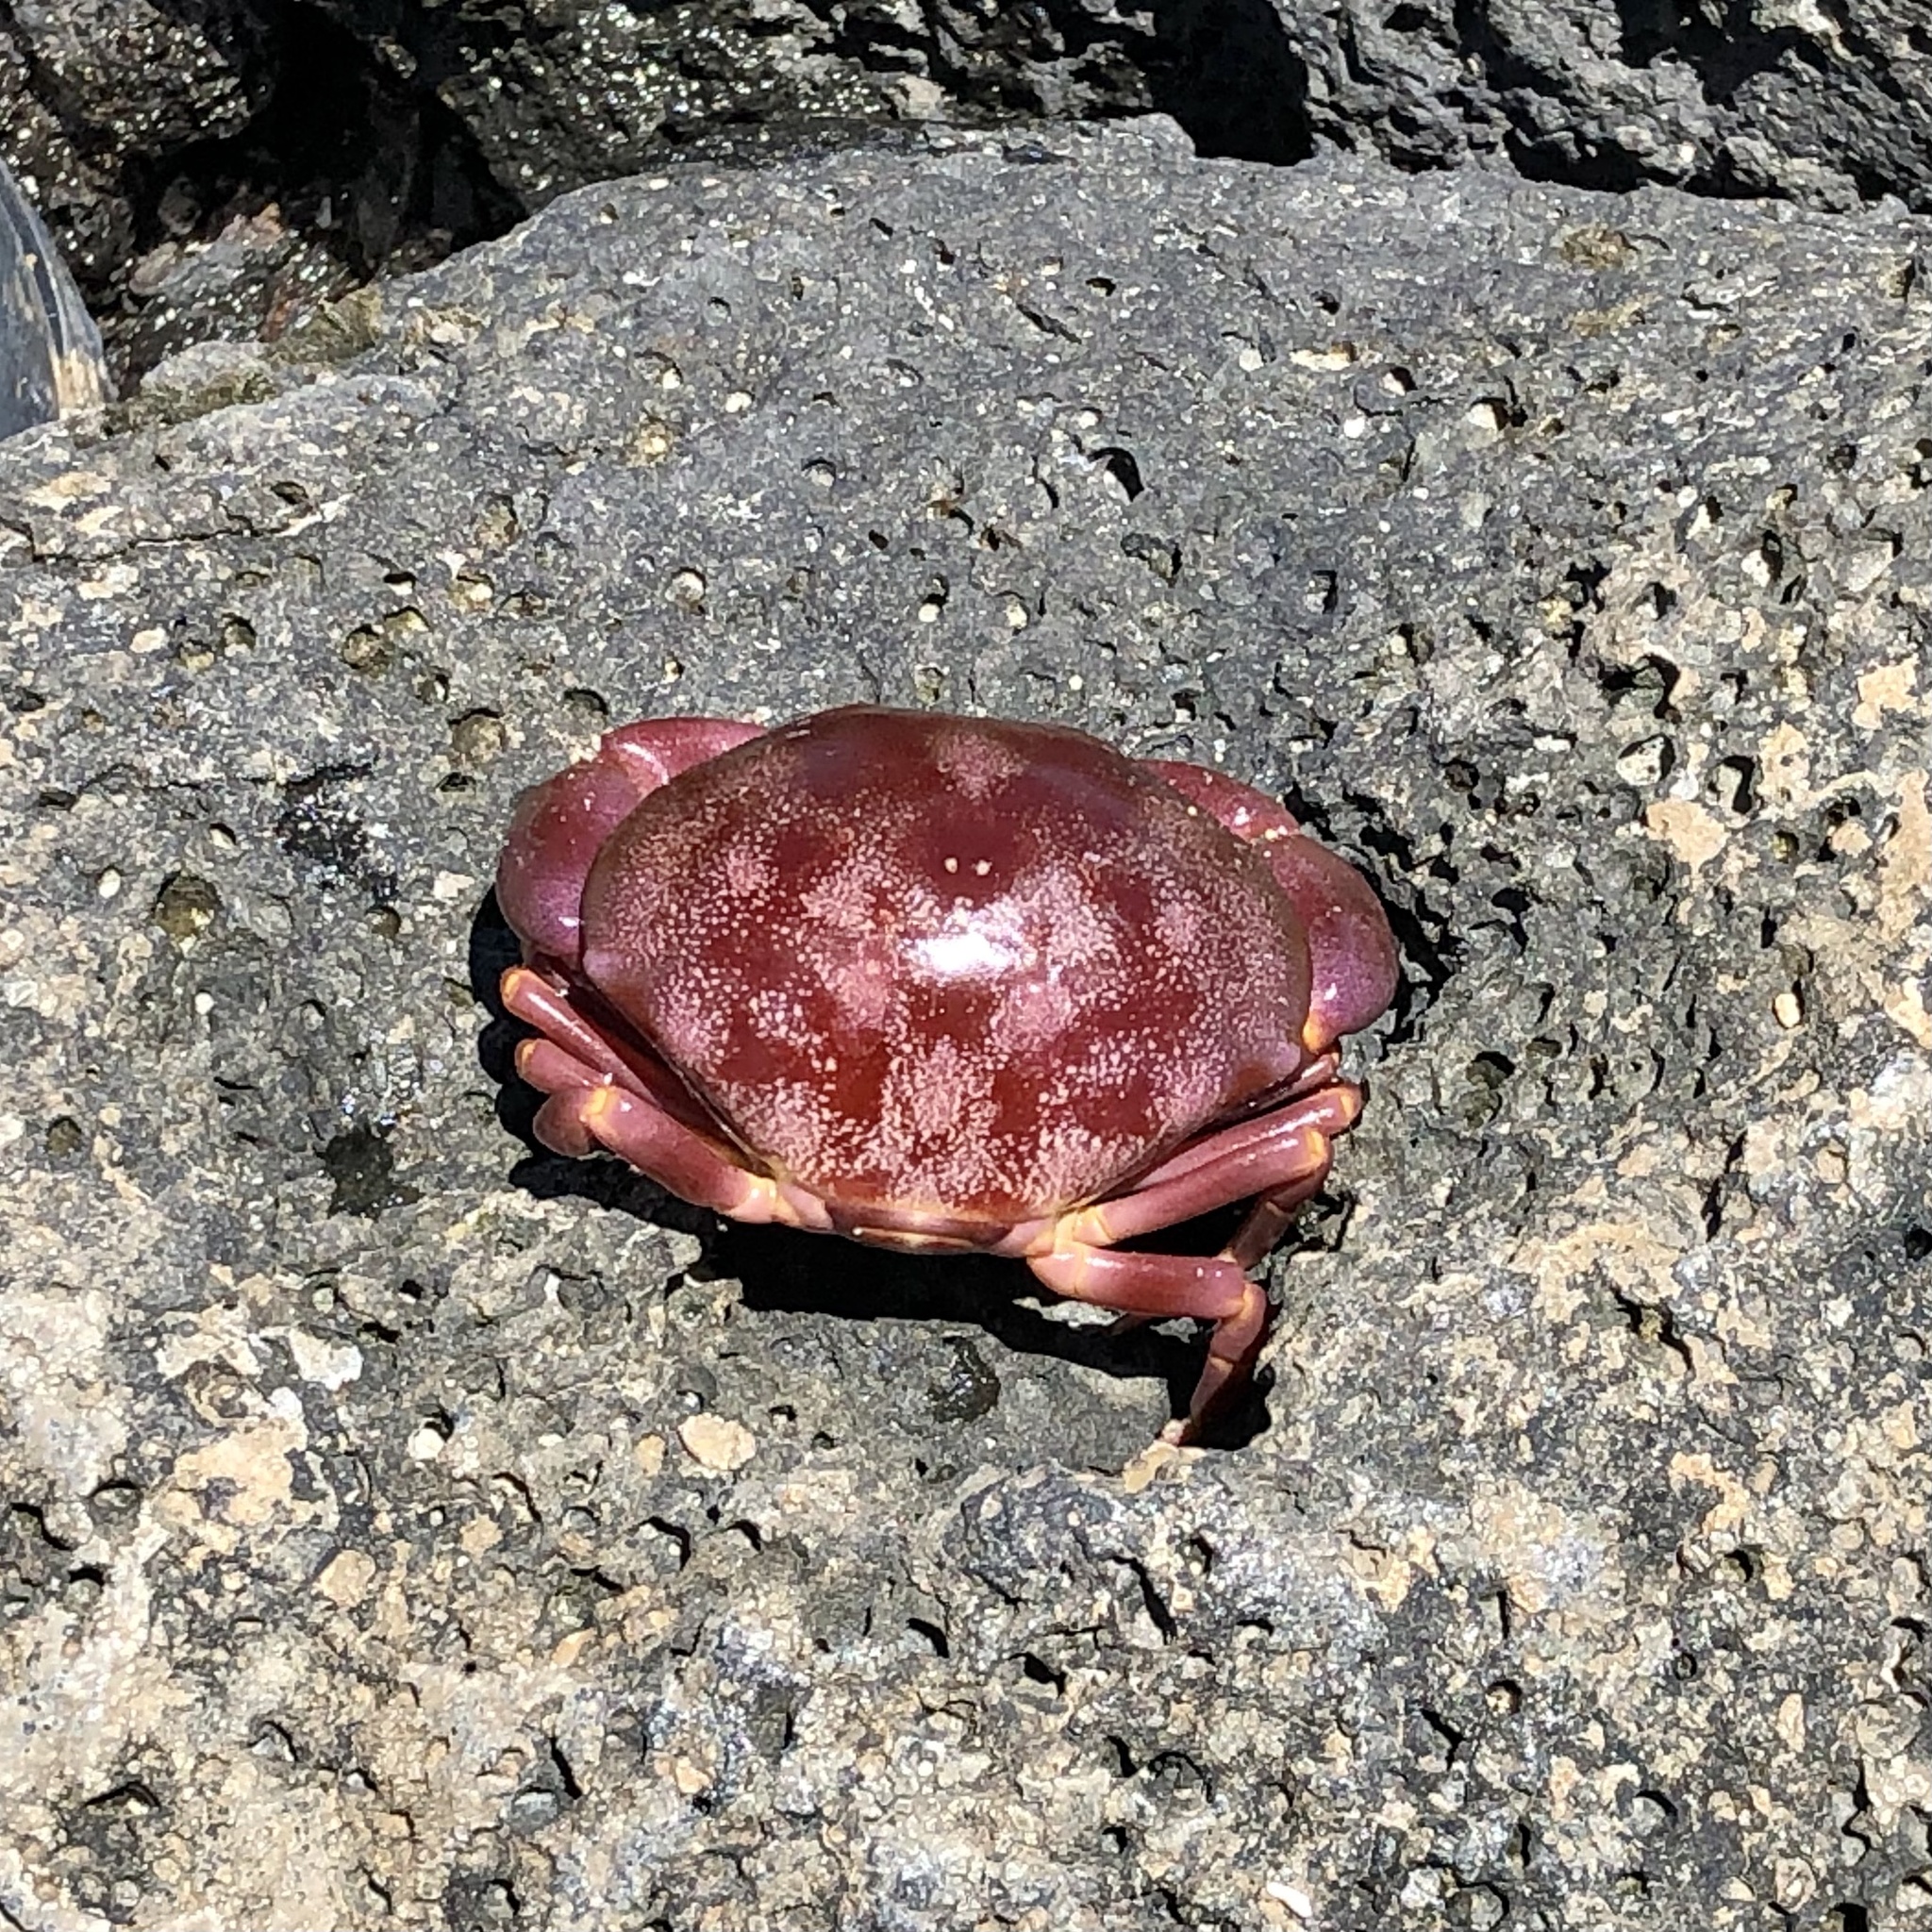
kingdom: Animalia
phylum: Arthropoda
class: Malacostraca
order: Decapoda
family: Carpiliidae
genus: Carpilius
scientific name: Carpilius convexus
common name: Convex reef crab
